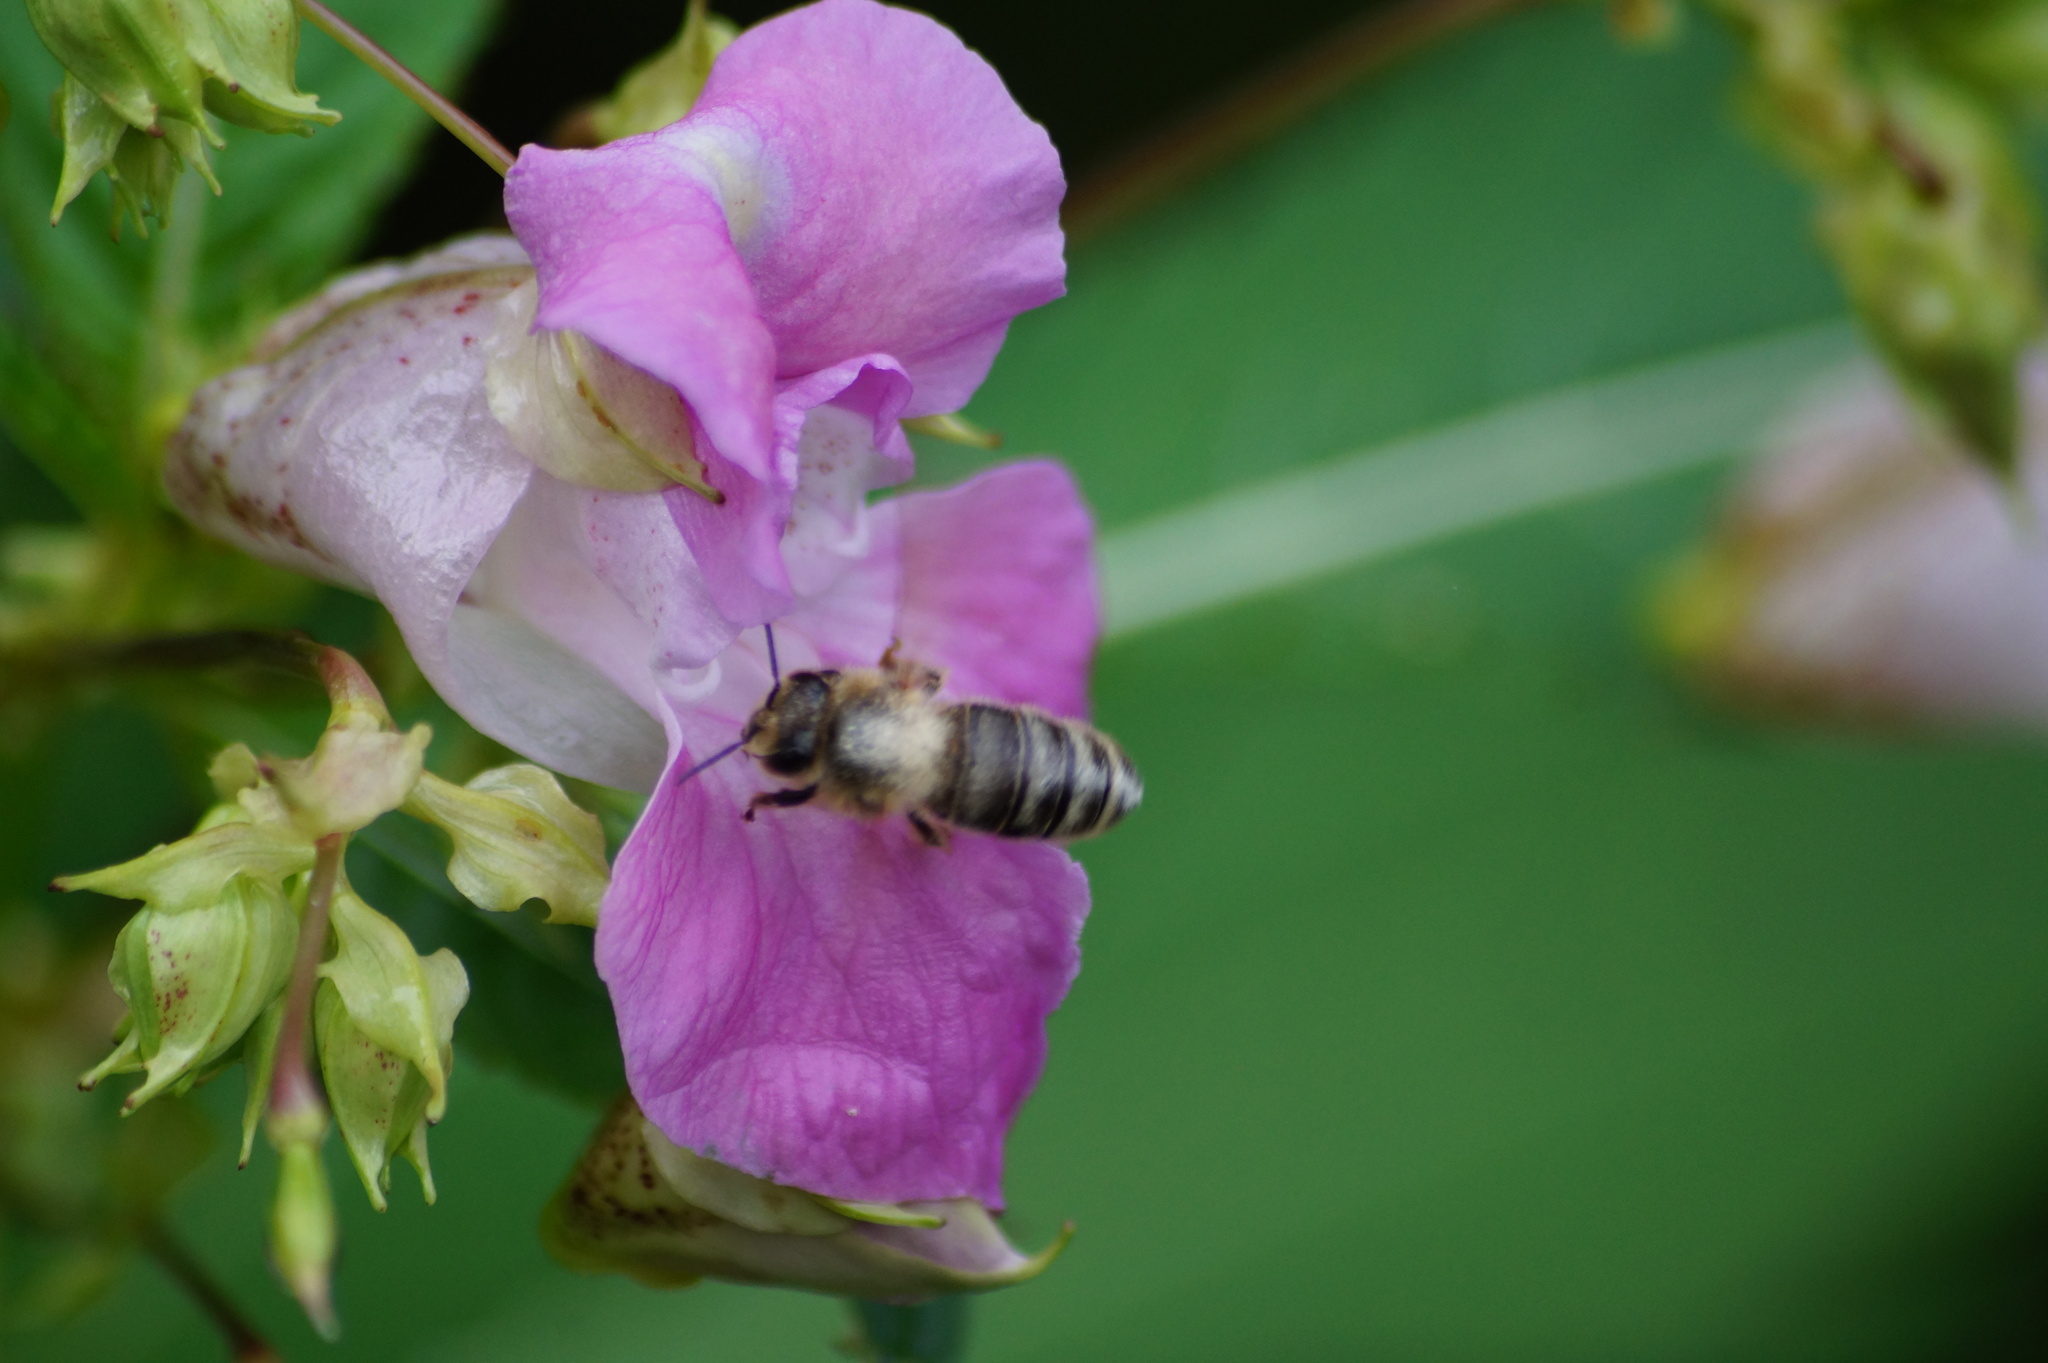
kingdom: Animalia
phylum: Arthropoda
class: Insecta
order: Hymenoptera
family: Apidae
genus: Apis
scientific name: Apis mellifera
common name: Honey bee
